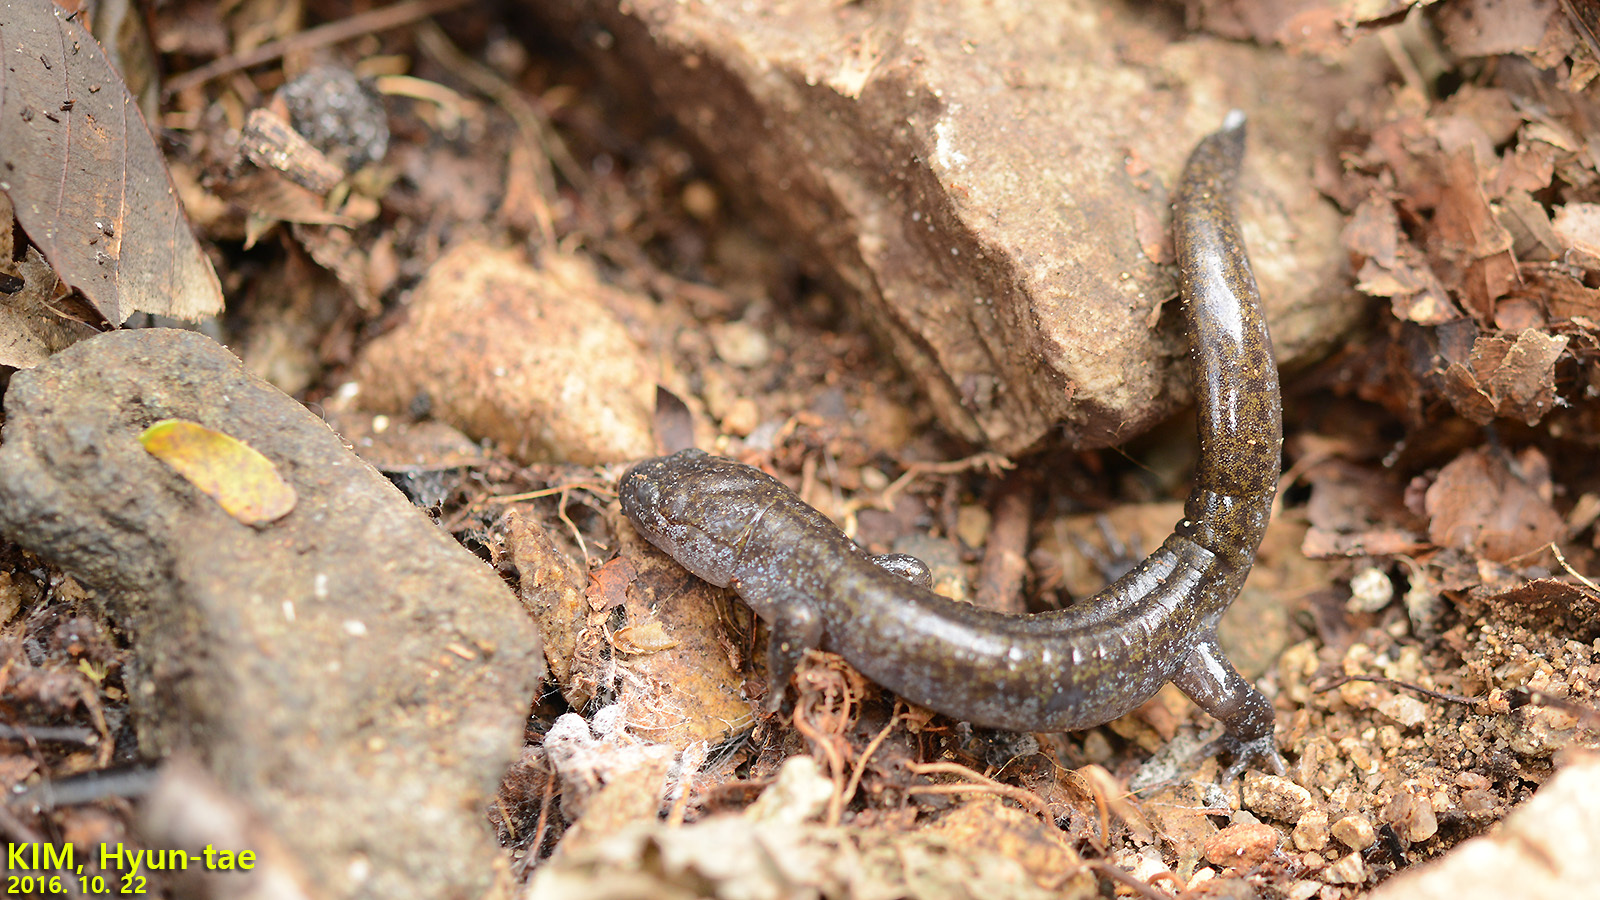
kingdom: Animalia
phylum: Chordata
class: Amphibia
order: Caudata
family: Hynobiidae
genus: Hynobius
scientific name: Hynobius leechii
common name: Gensan salamander
